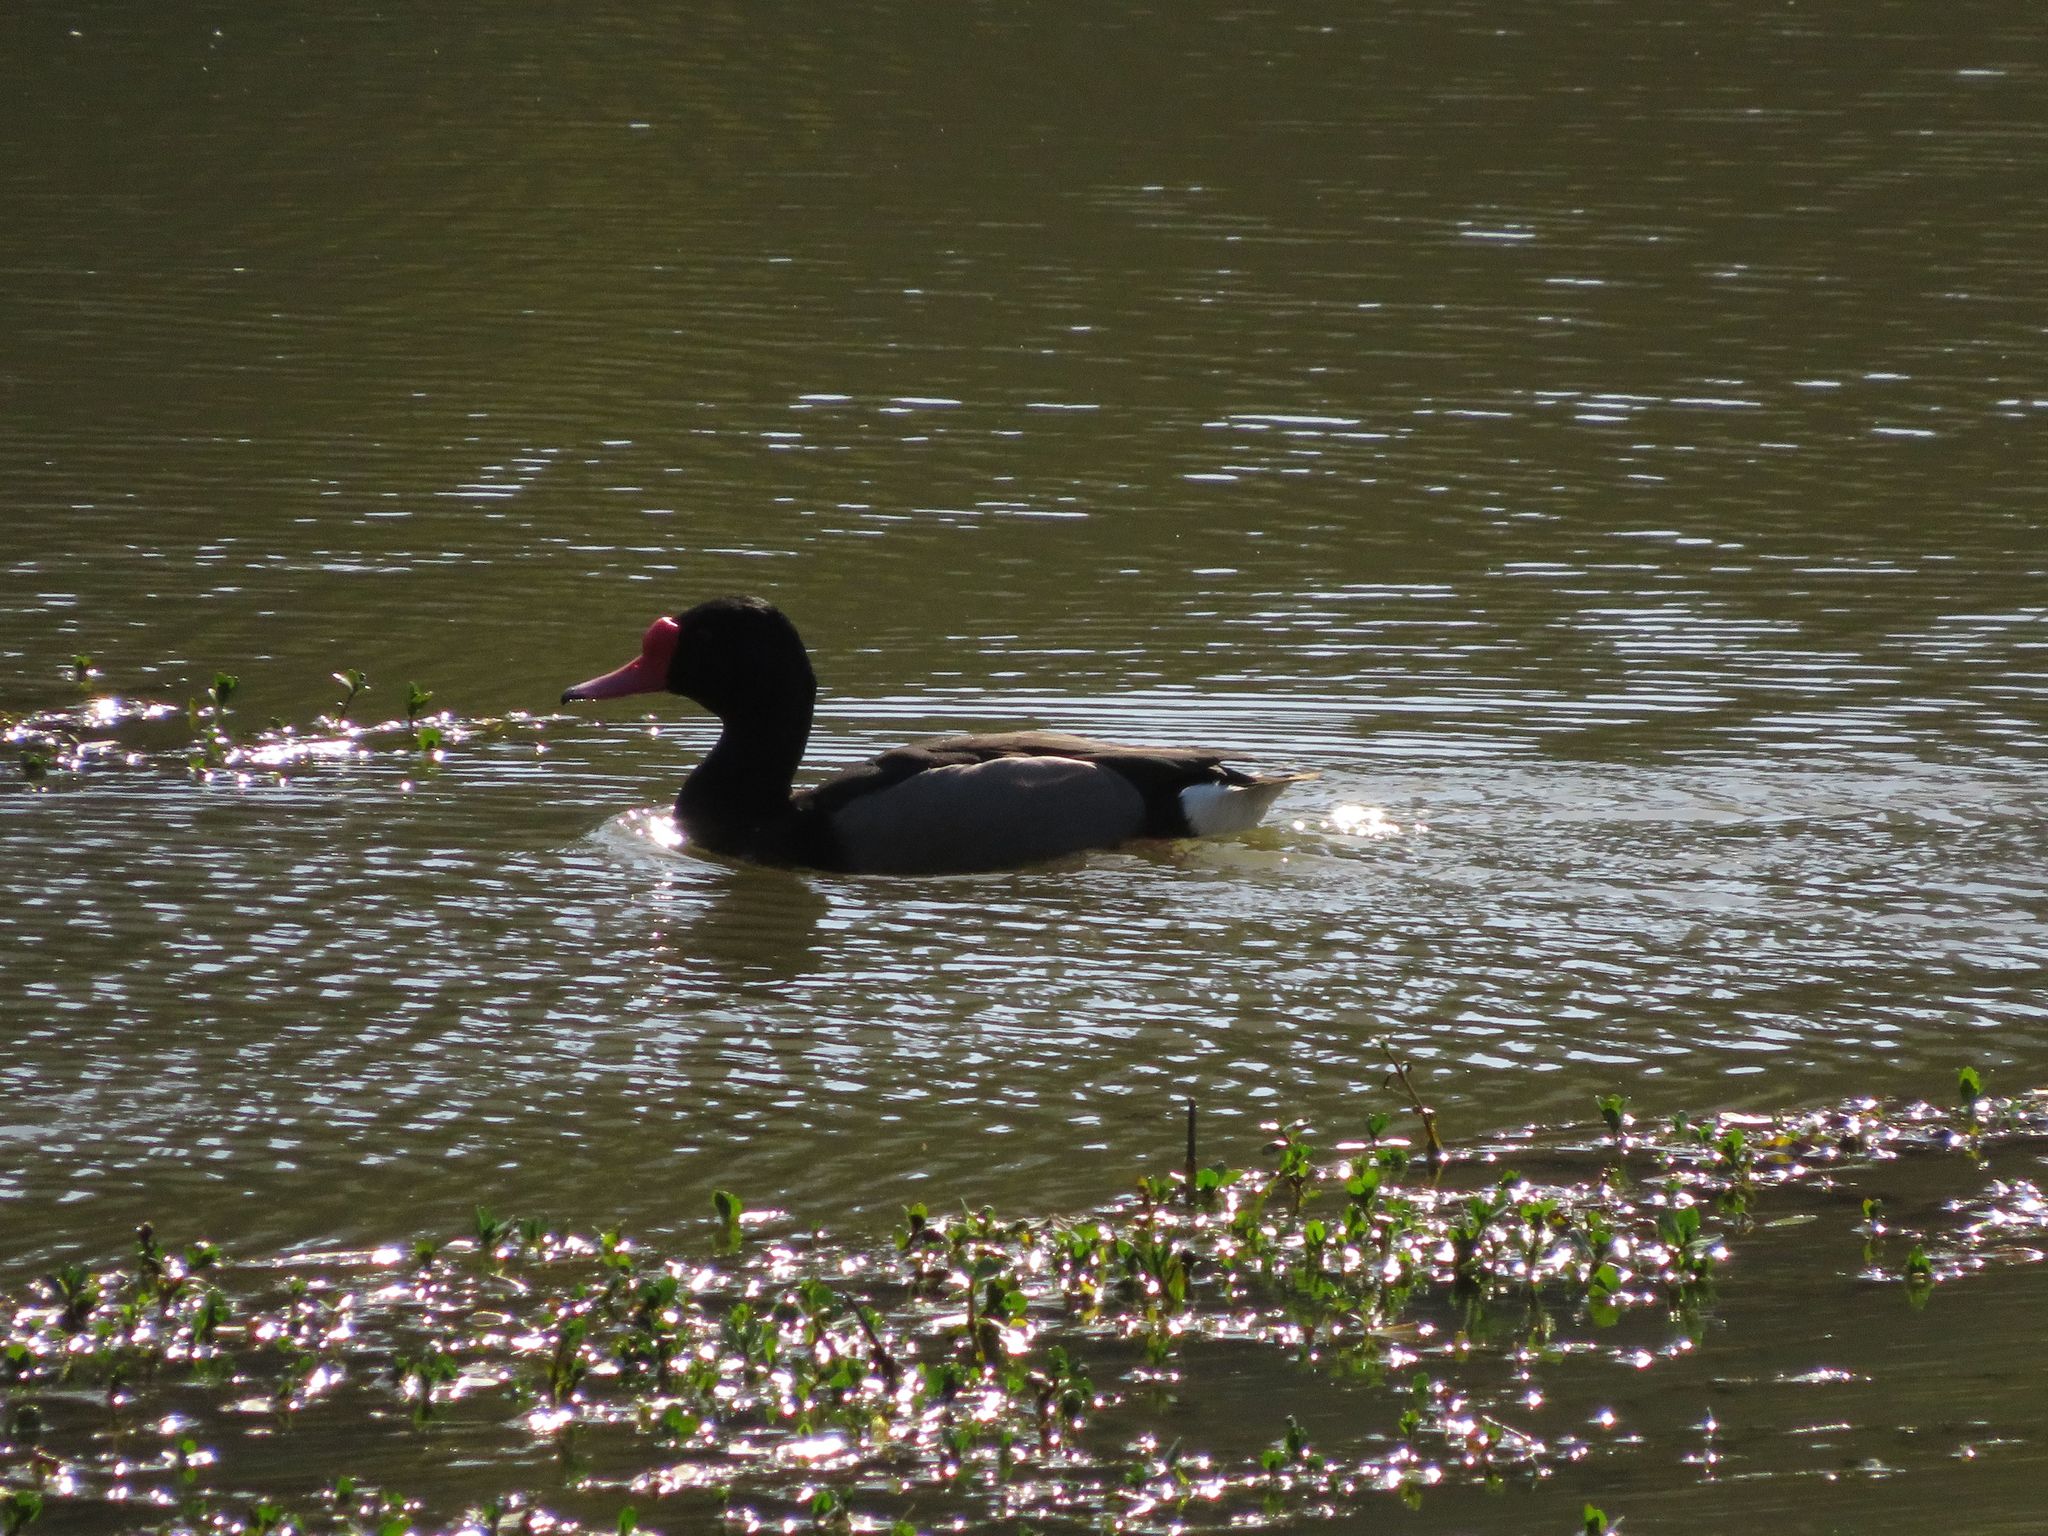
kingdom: Animalia
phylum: Chordata
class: Aves
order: Anseriformes
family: Anatidae
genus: Netta
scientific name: Netta peposaca
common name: Rosy-billed pochard
